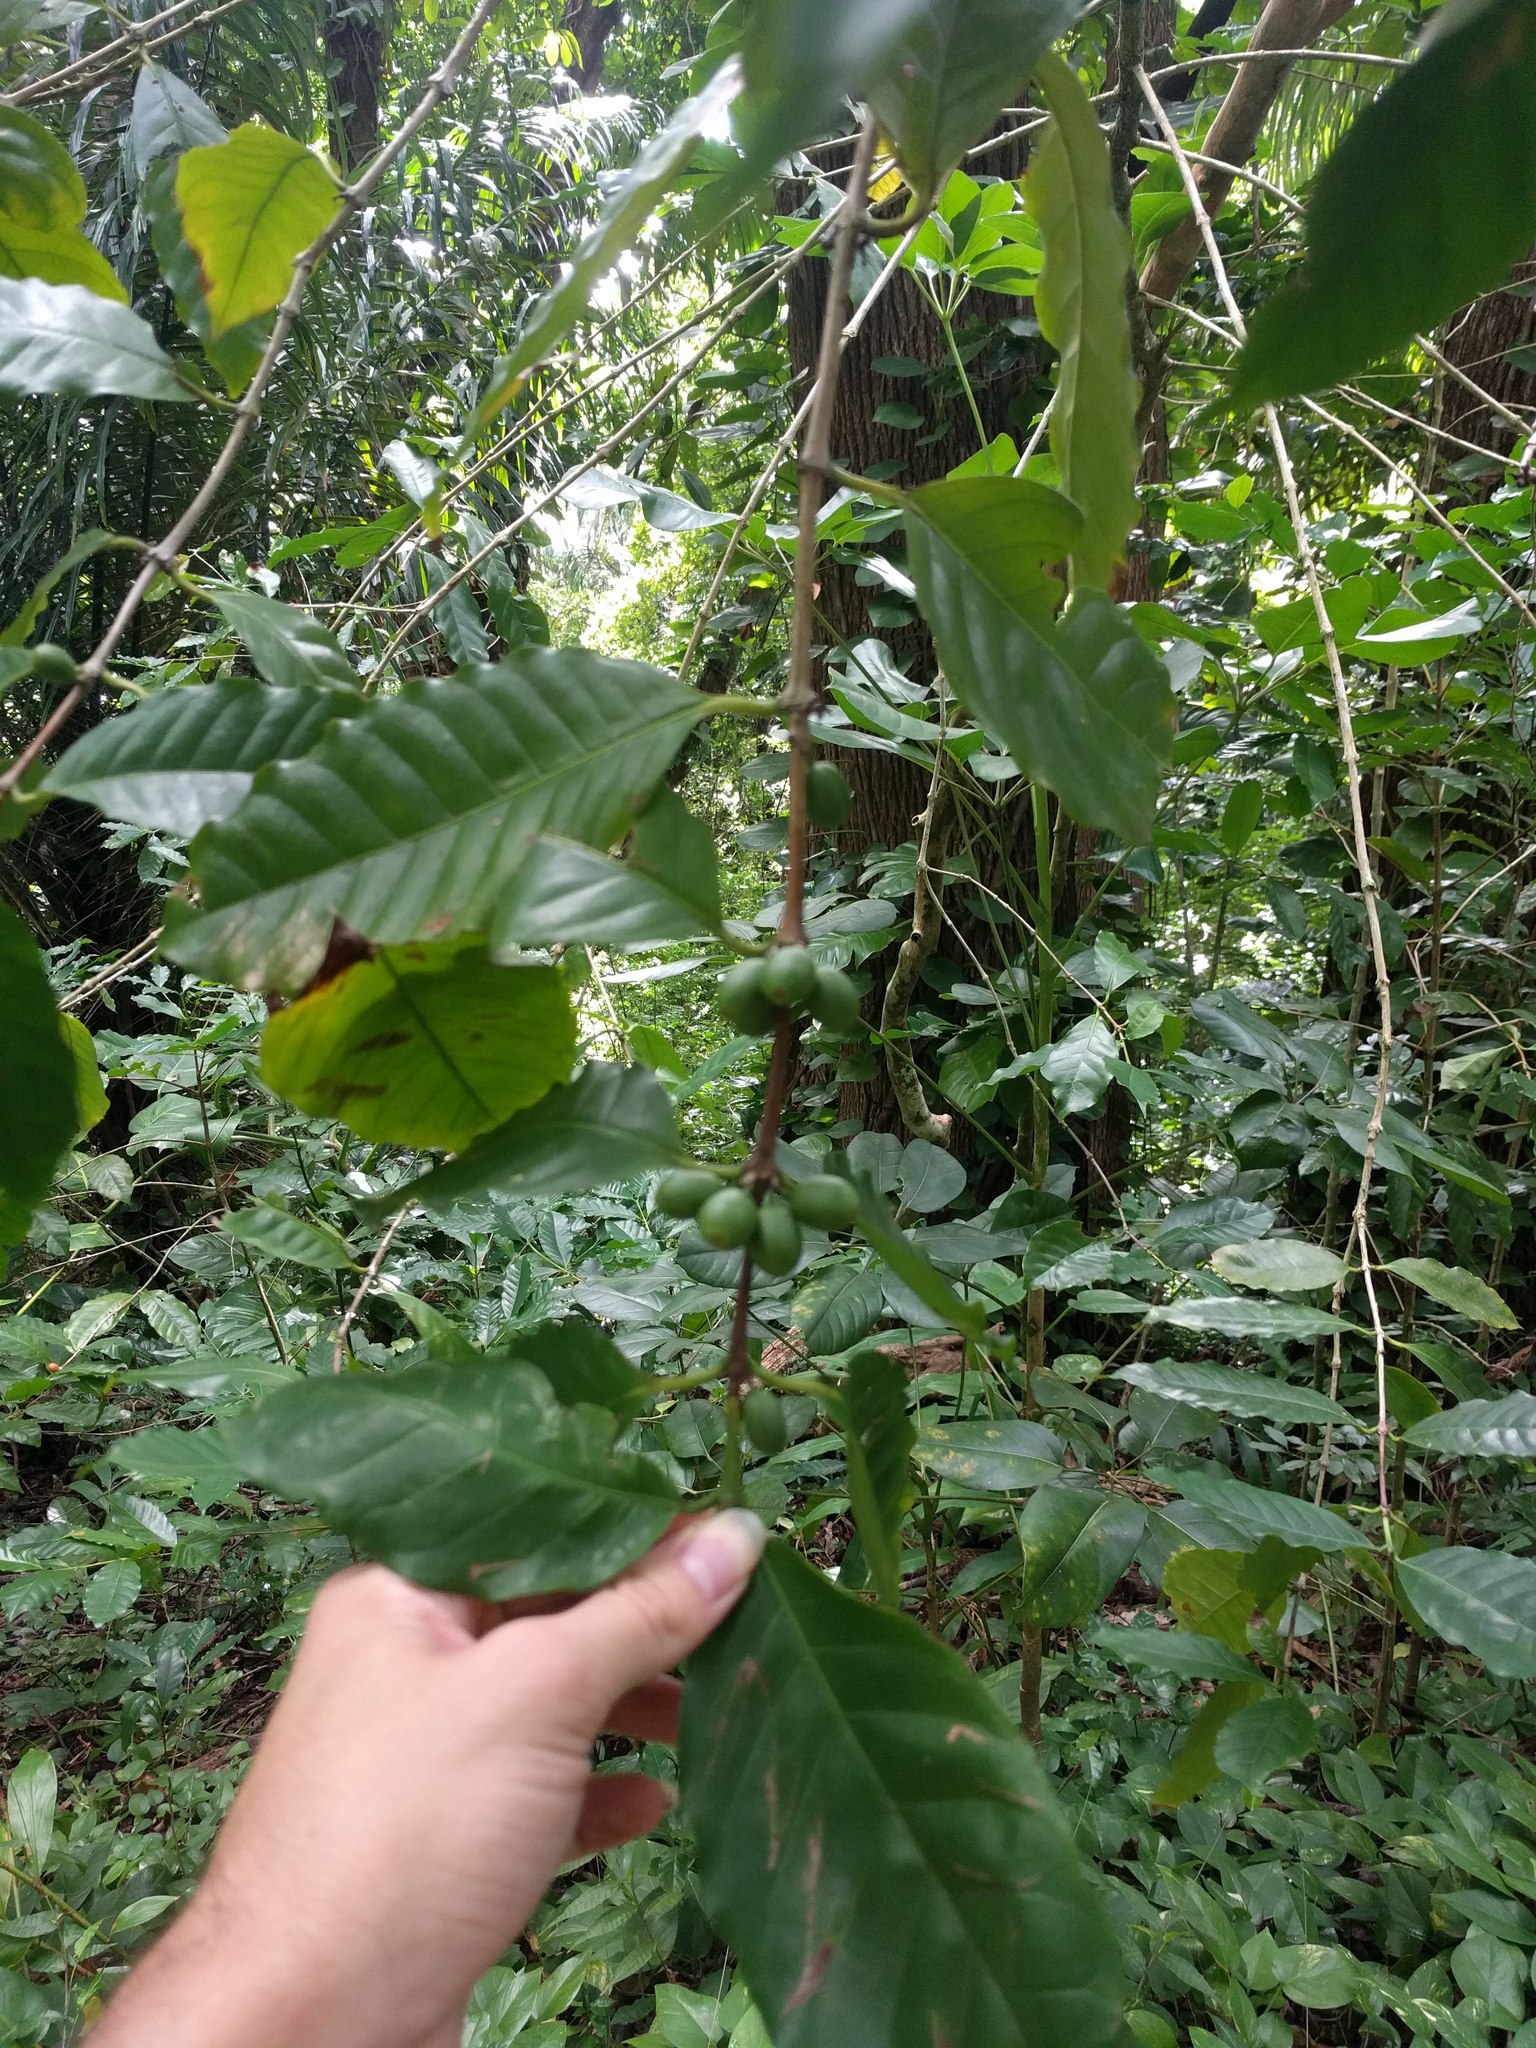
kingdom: Plantae
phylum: Tracheophyta
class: Magnoliopsida
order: Gentianales
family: Rubiaceae
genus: Coffea
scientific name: Coffea arabica
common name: Coffee
